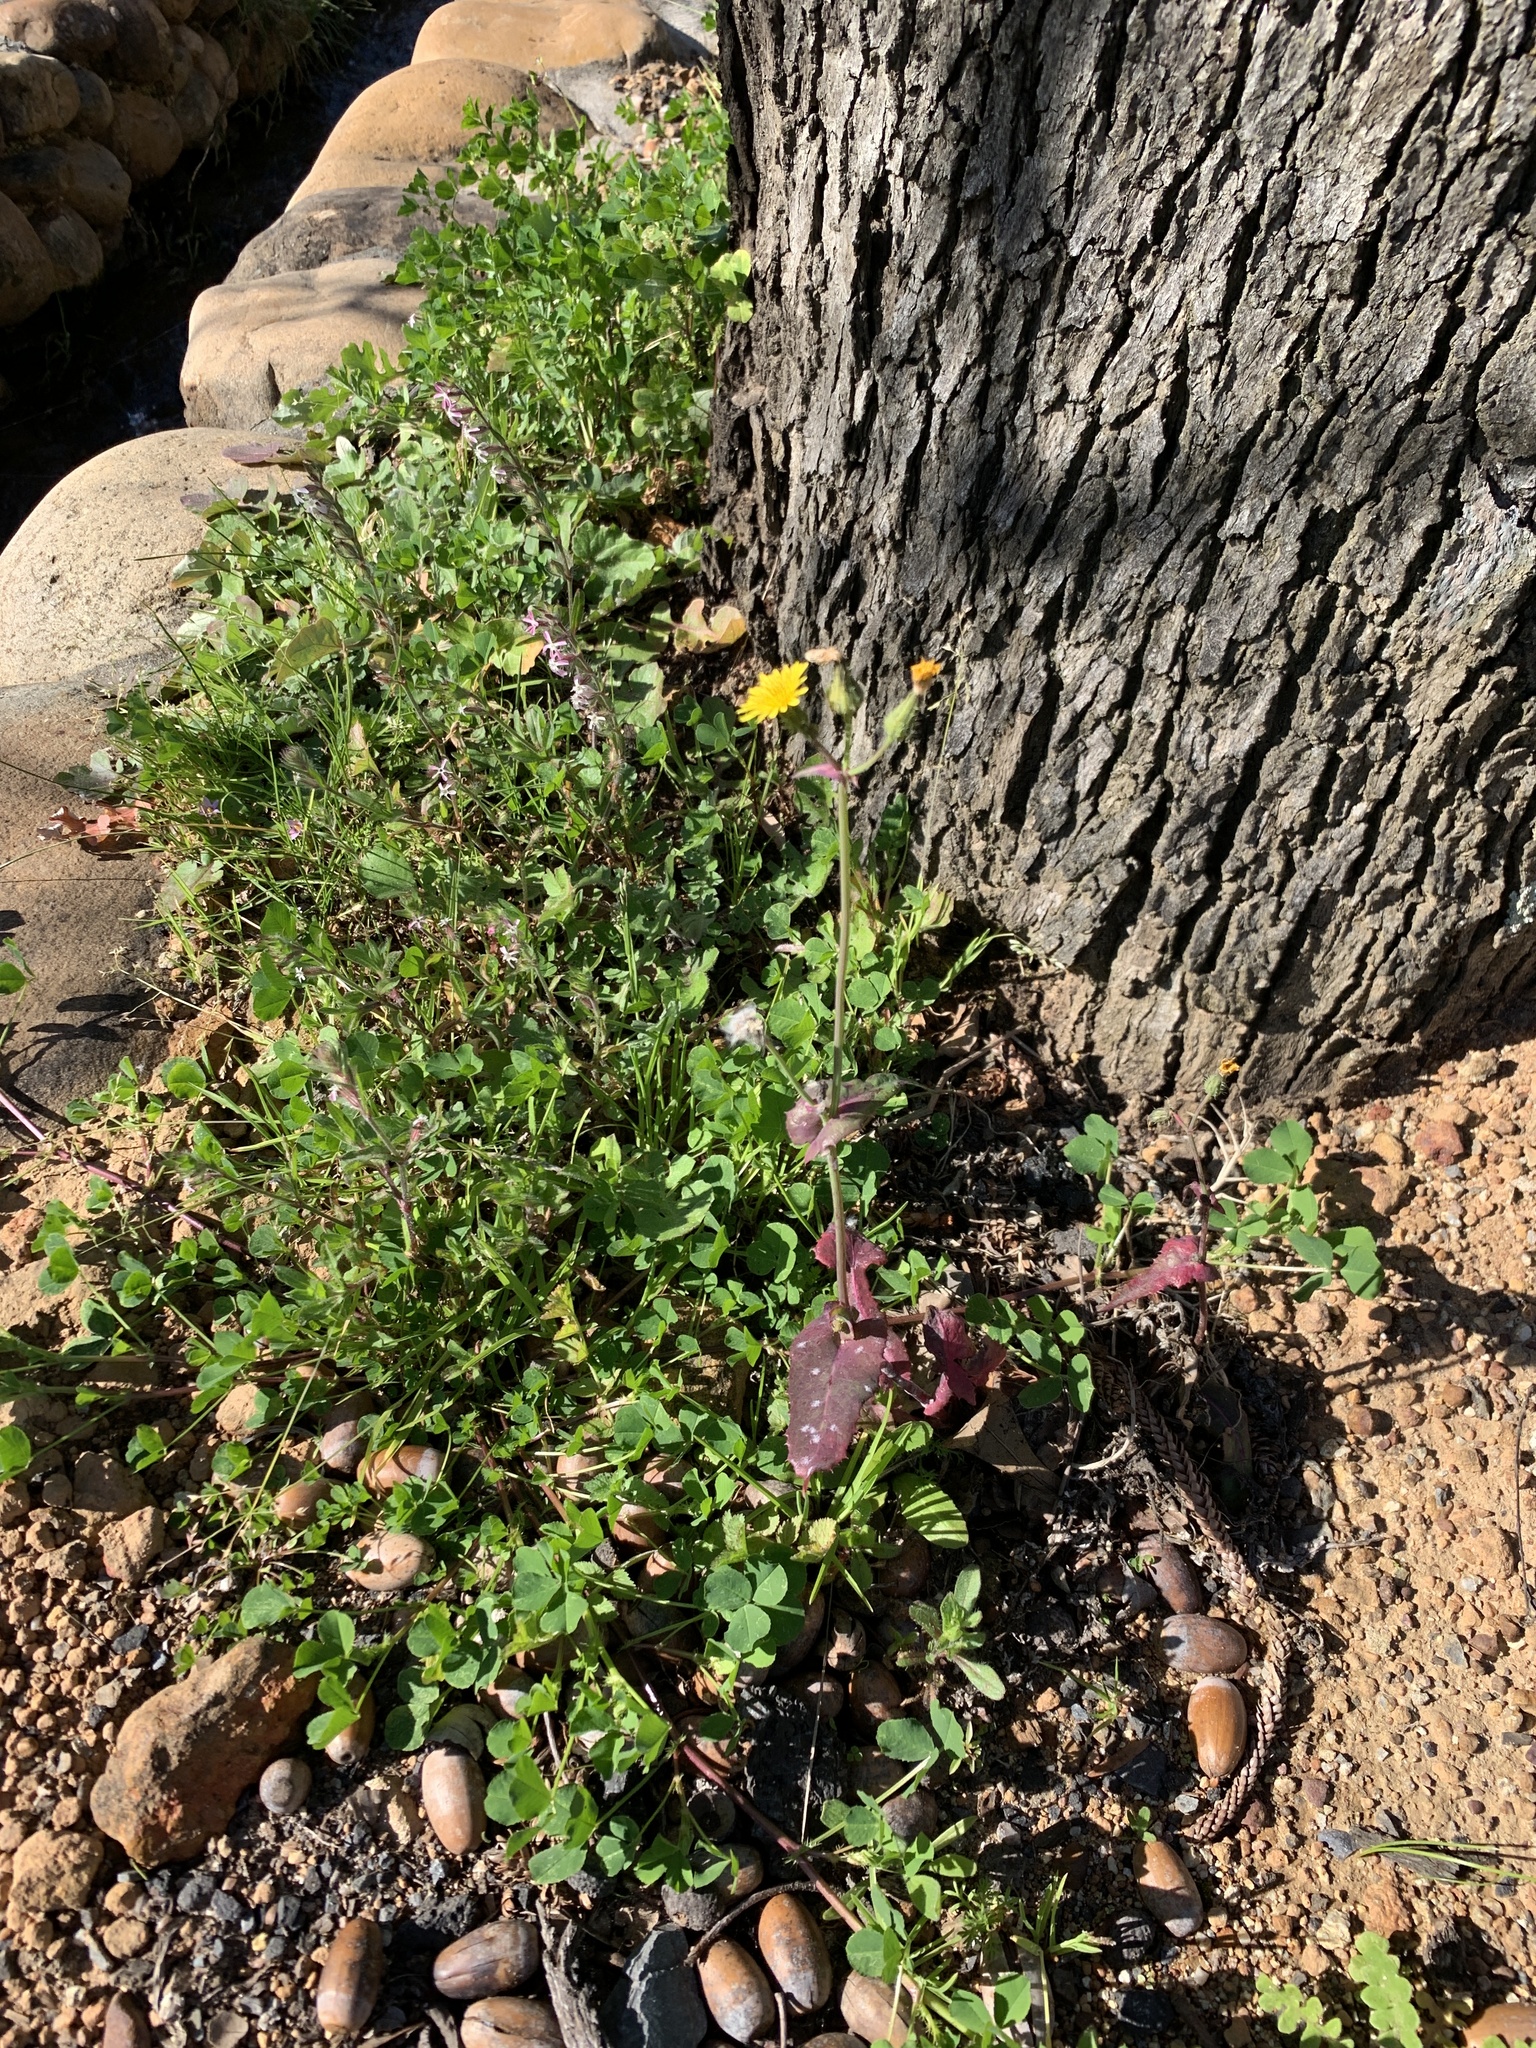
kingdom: Plantae
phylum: Tracheophyta
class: Magnoliopsida
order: Asterales
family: Asteraceae
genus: Sonchus
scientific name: Sonchus oleraceus
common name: Common sowthistle
